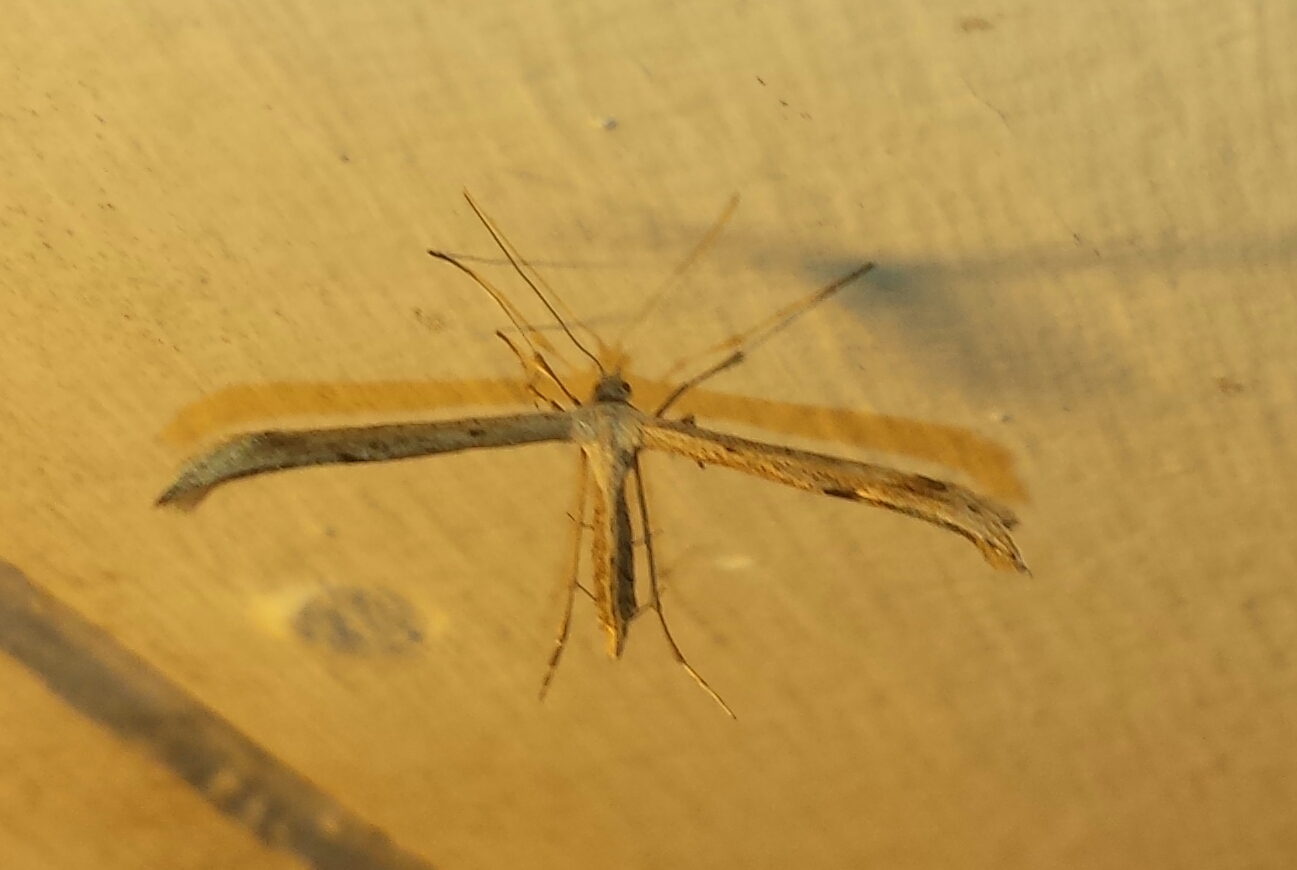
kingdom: Animalia
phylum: Arthropoda
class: Insecta
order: Lepidoptera
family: Pterophoridae
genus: Emmelina
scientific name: Emmelina monodactyla
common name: Common plume
